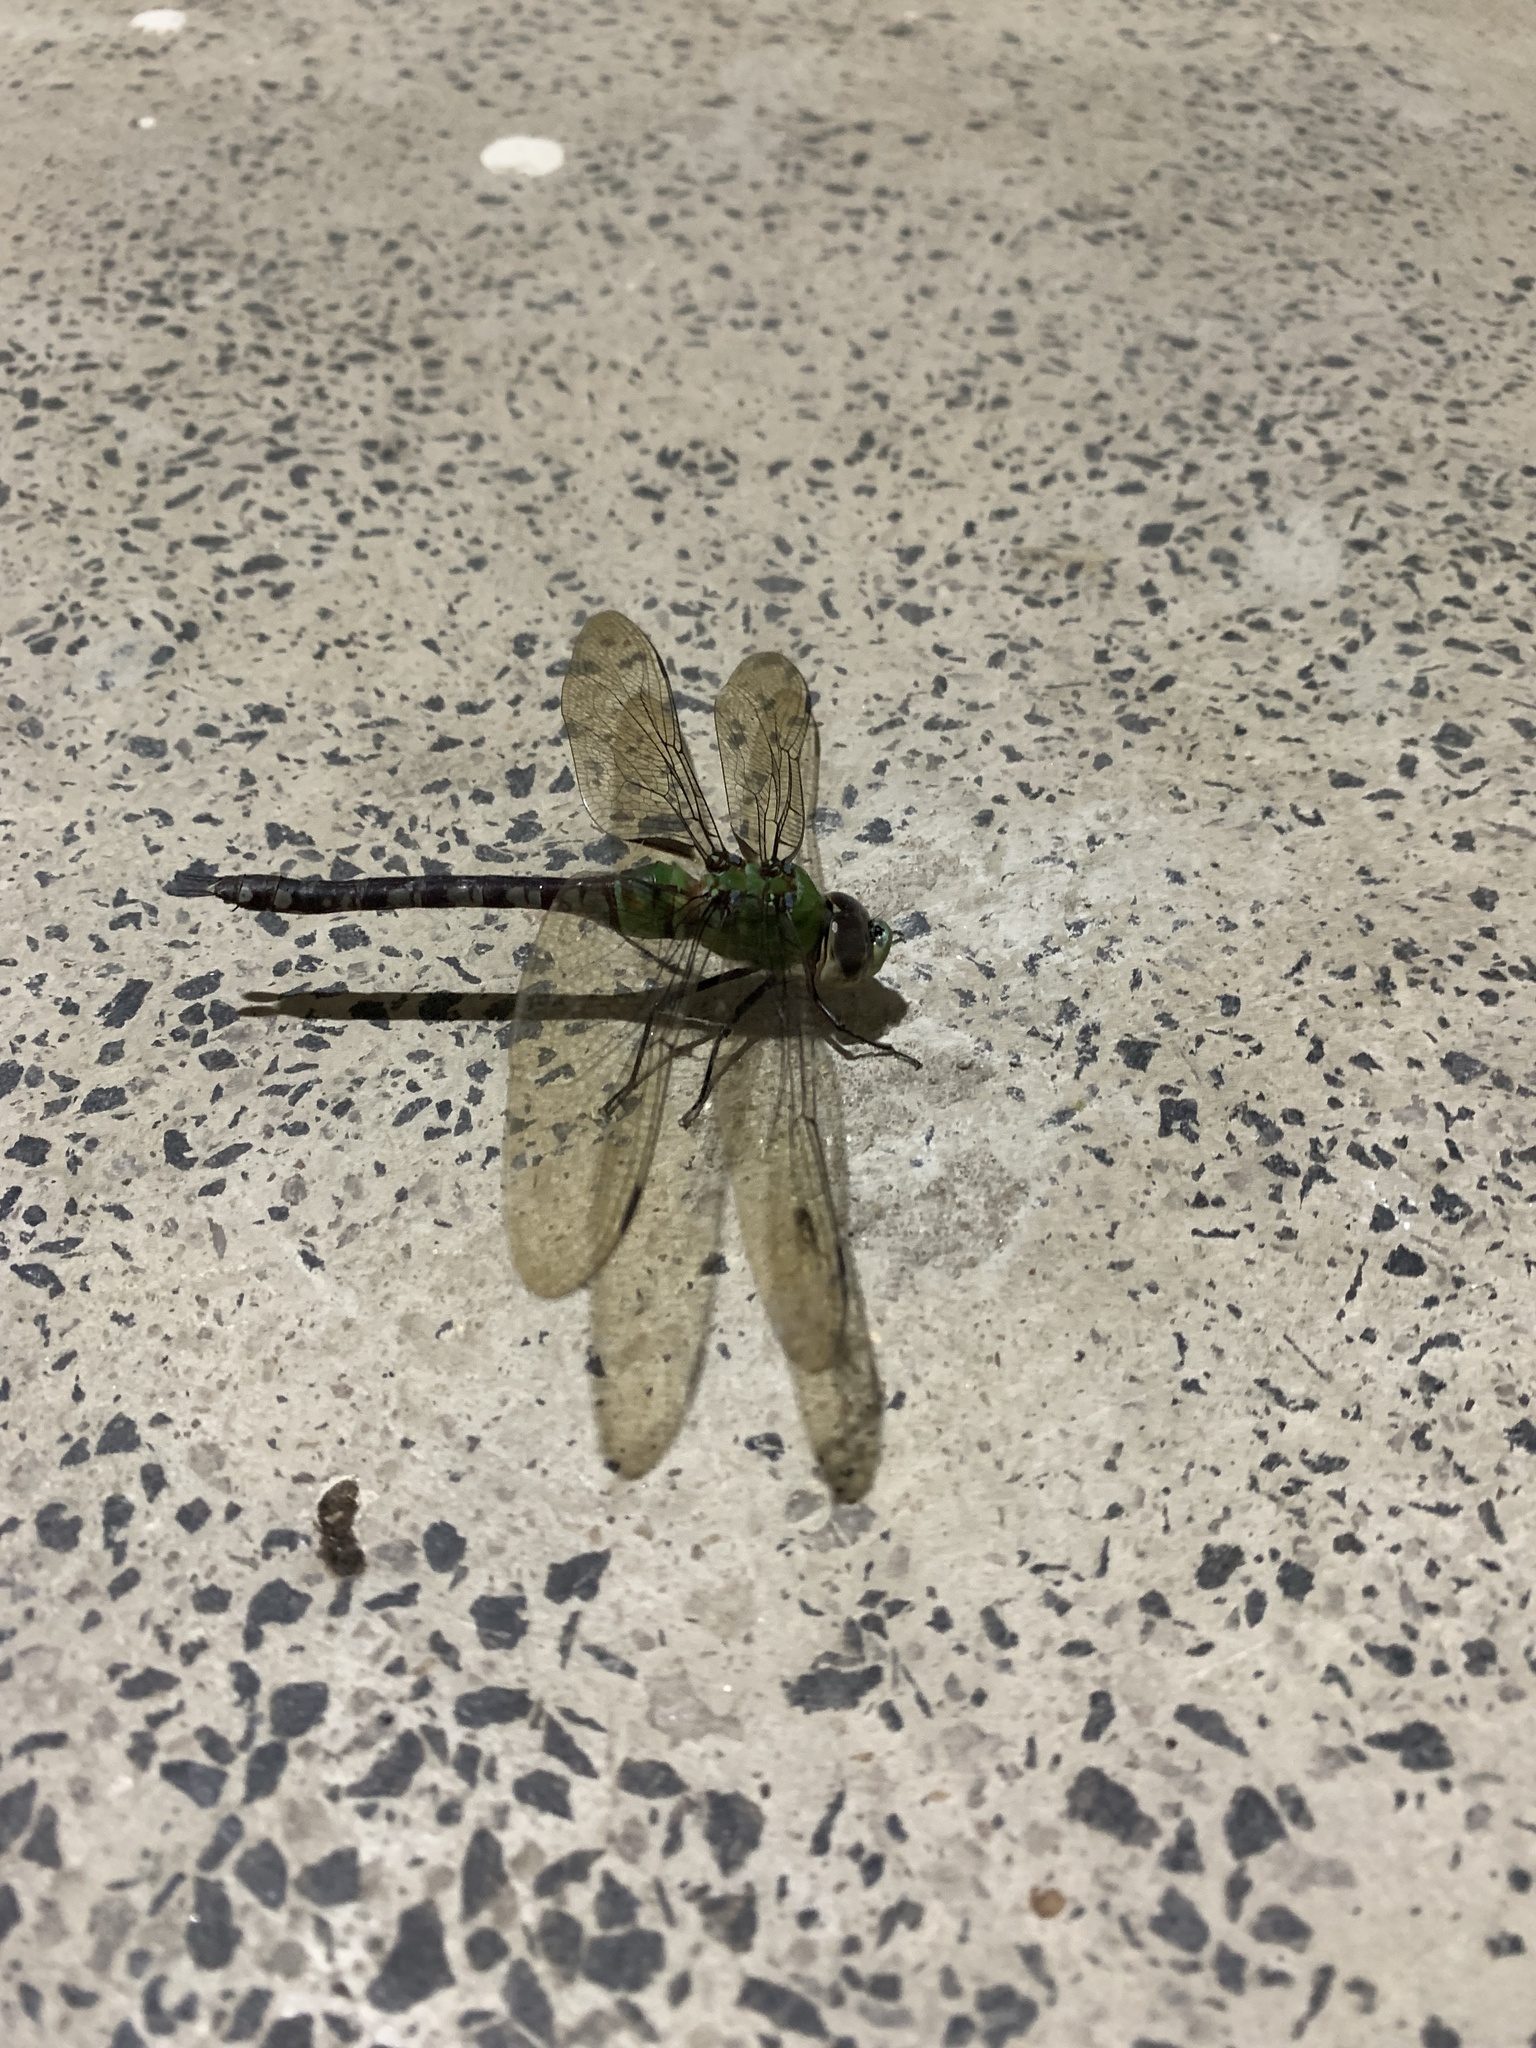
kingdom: Animalia
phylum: Arthropoda
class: Insecta
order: Odonata
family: Aeshnidae
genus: Anax
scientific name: Anax amazili
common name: Amazon darner
